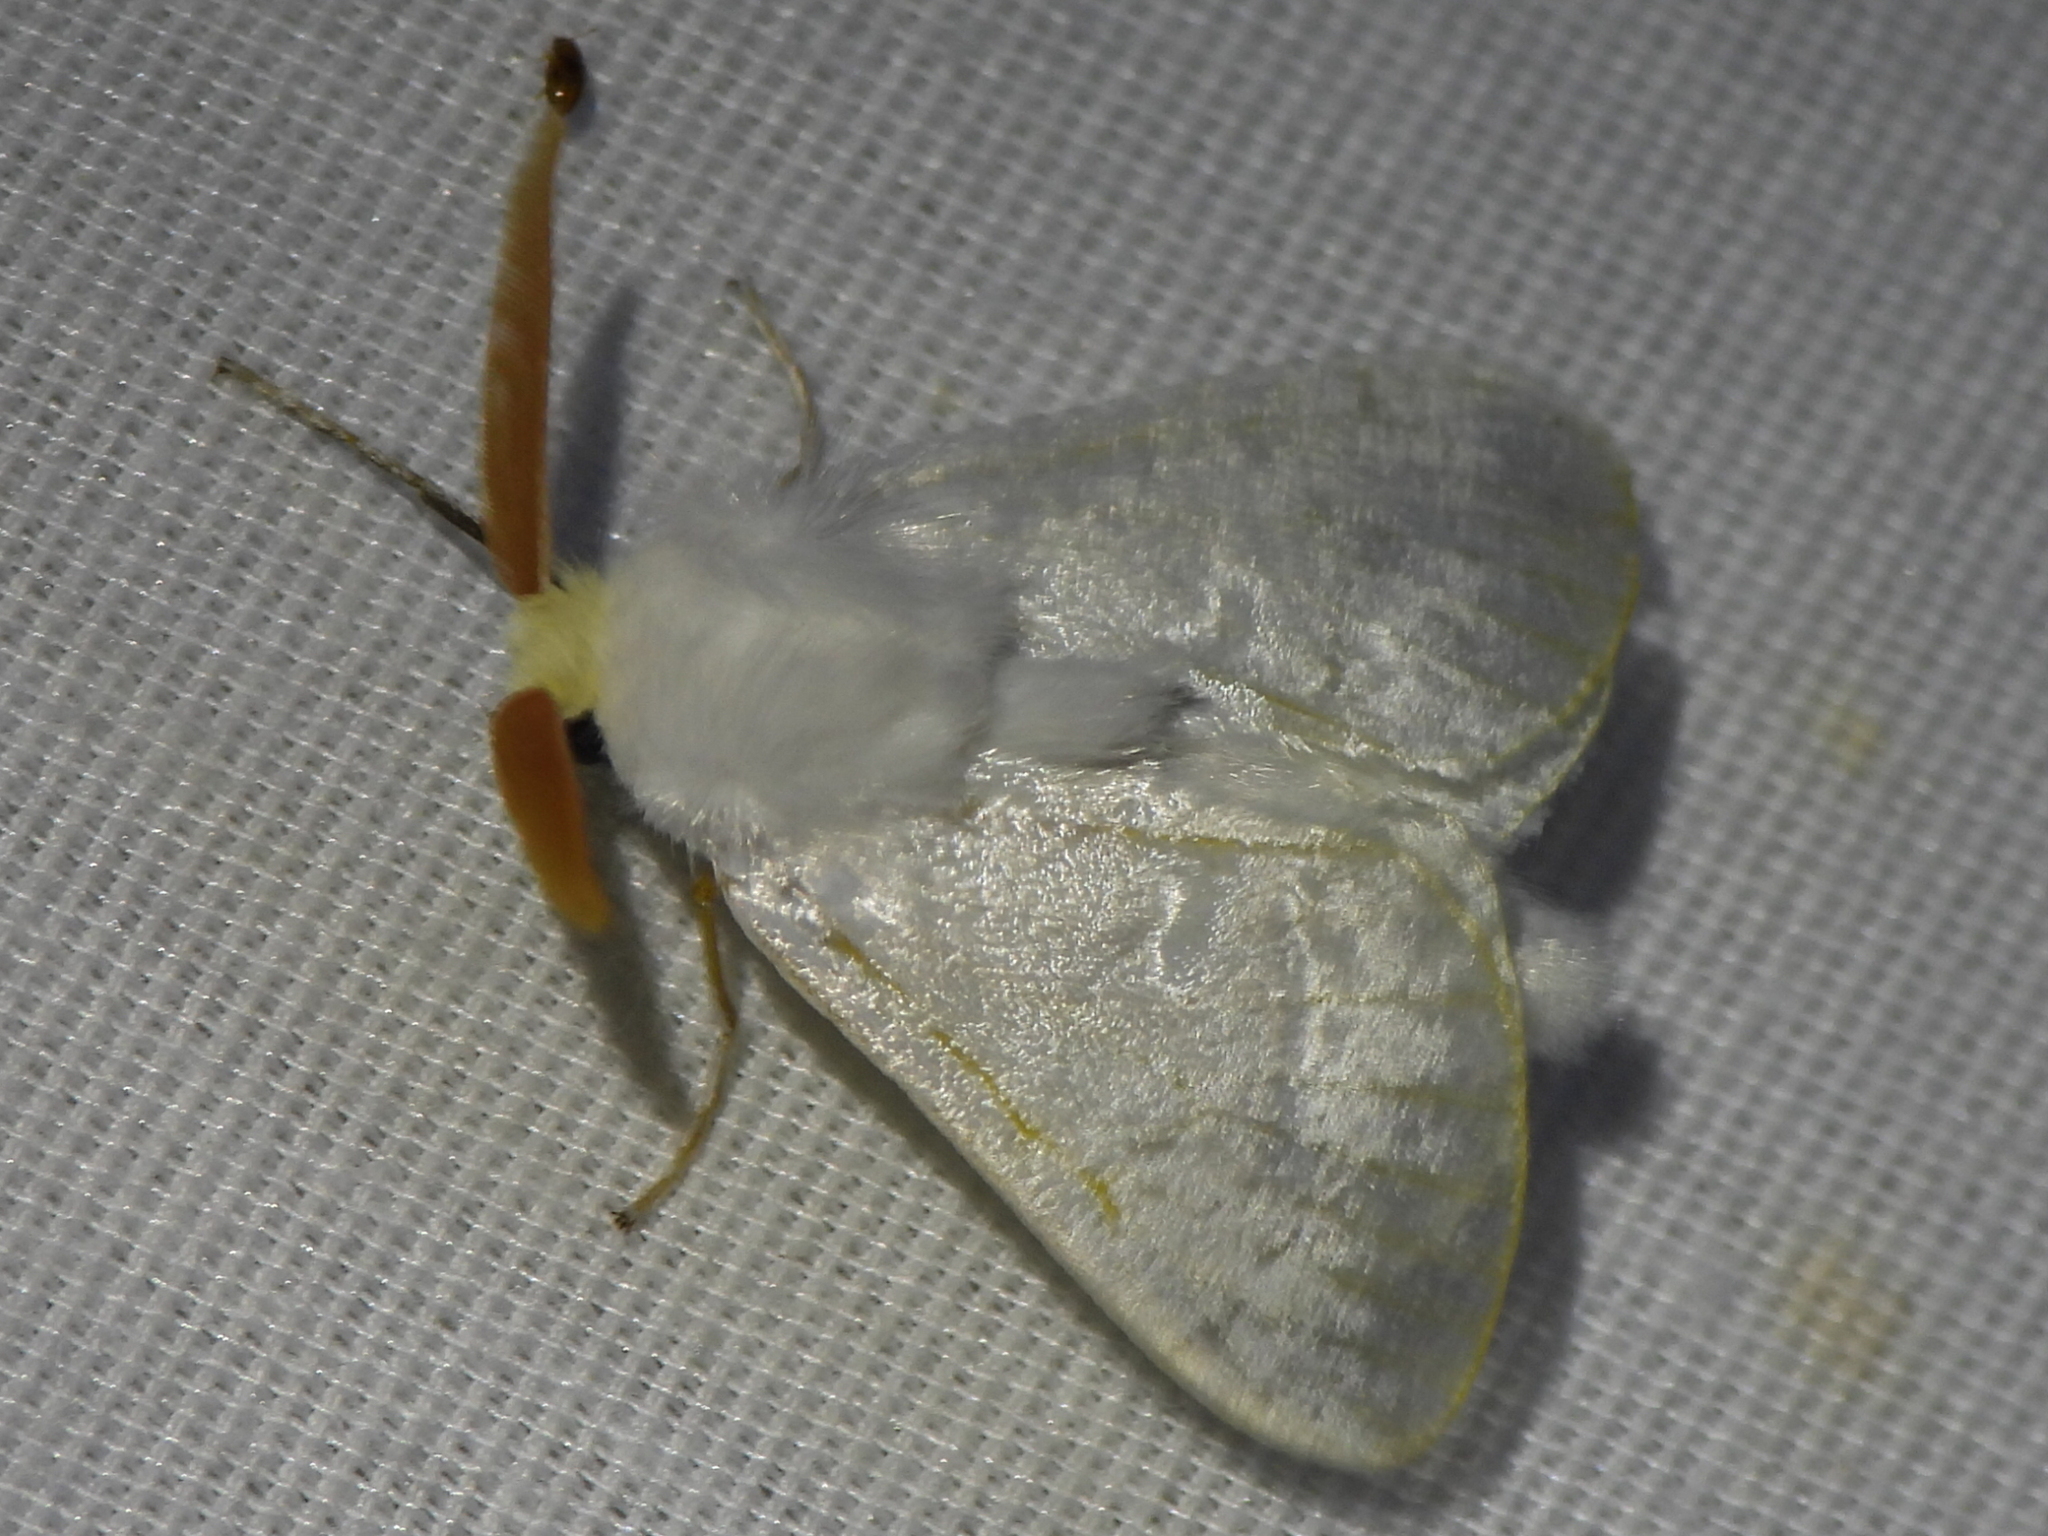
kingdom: Animalia
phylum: Arthropoda
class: Insecta
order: Lepidoptera
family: Megalopygidae
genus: Norape
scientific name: Norape cretata
